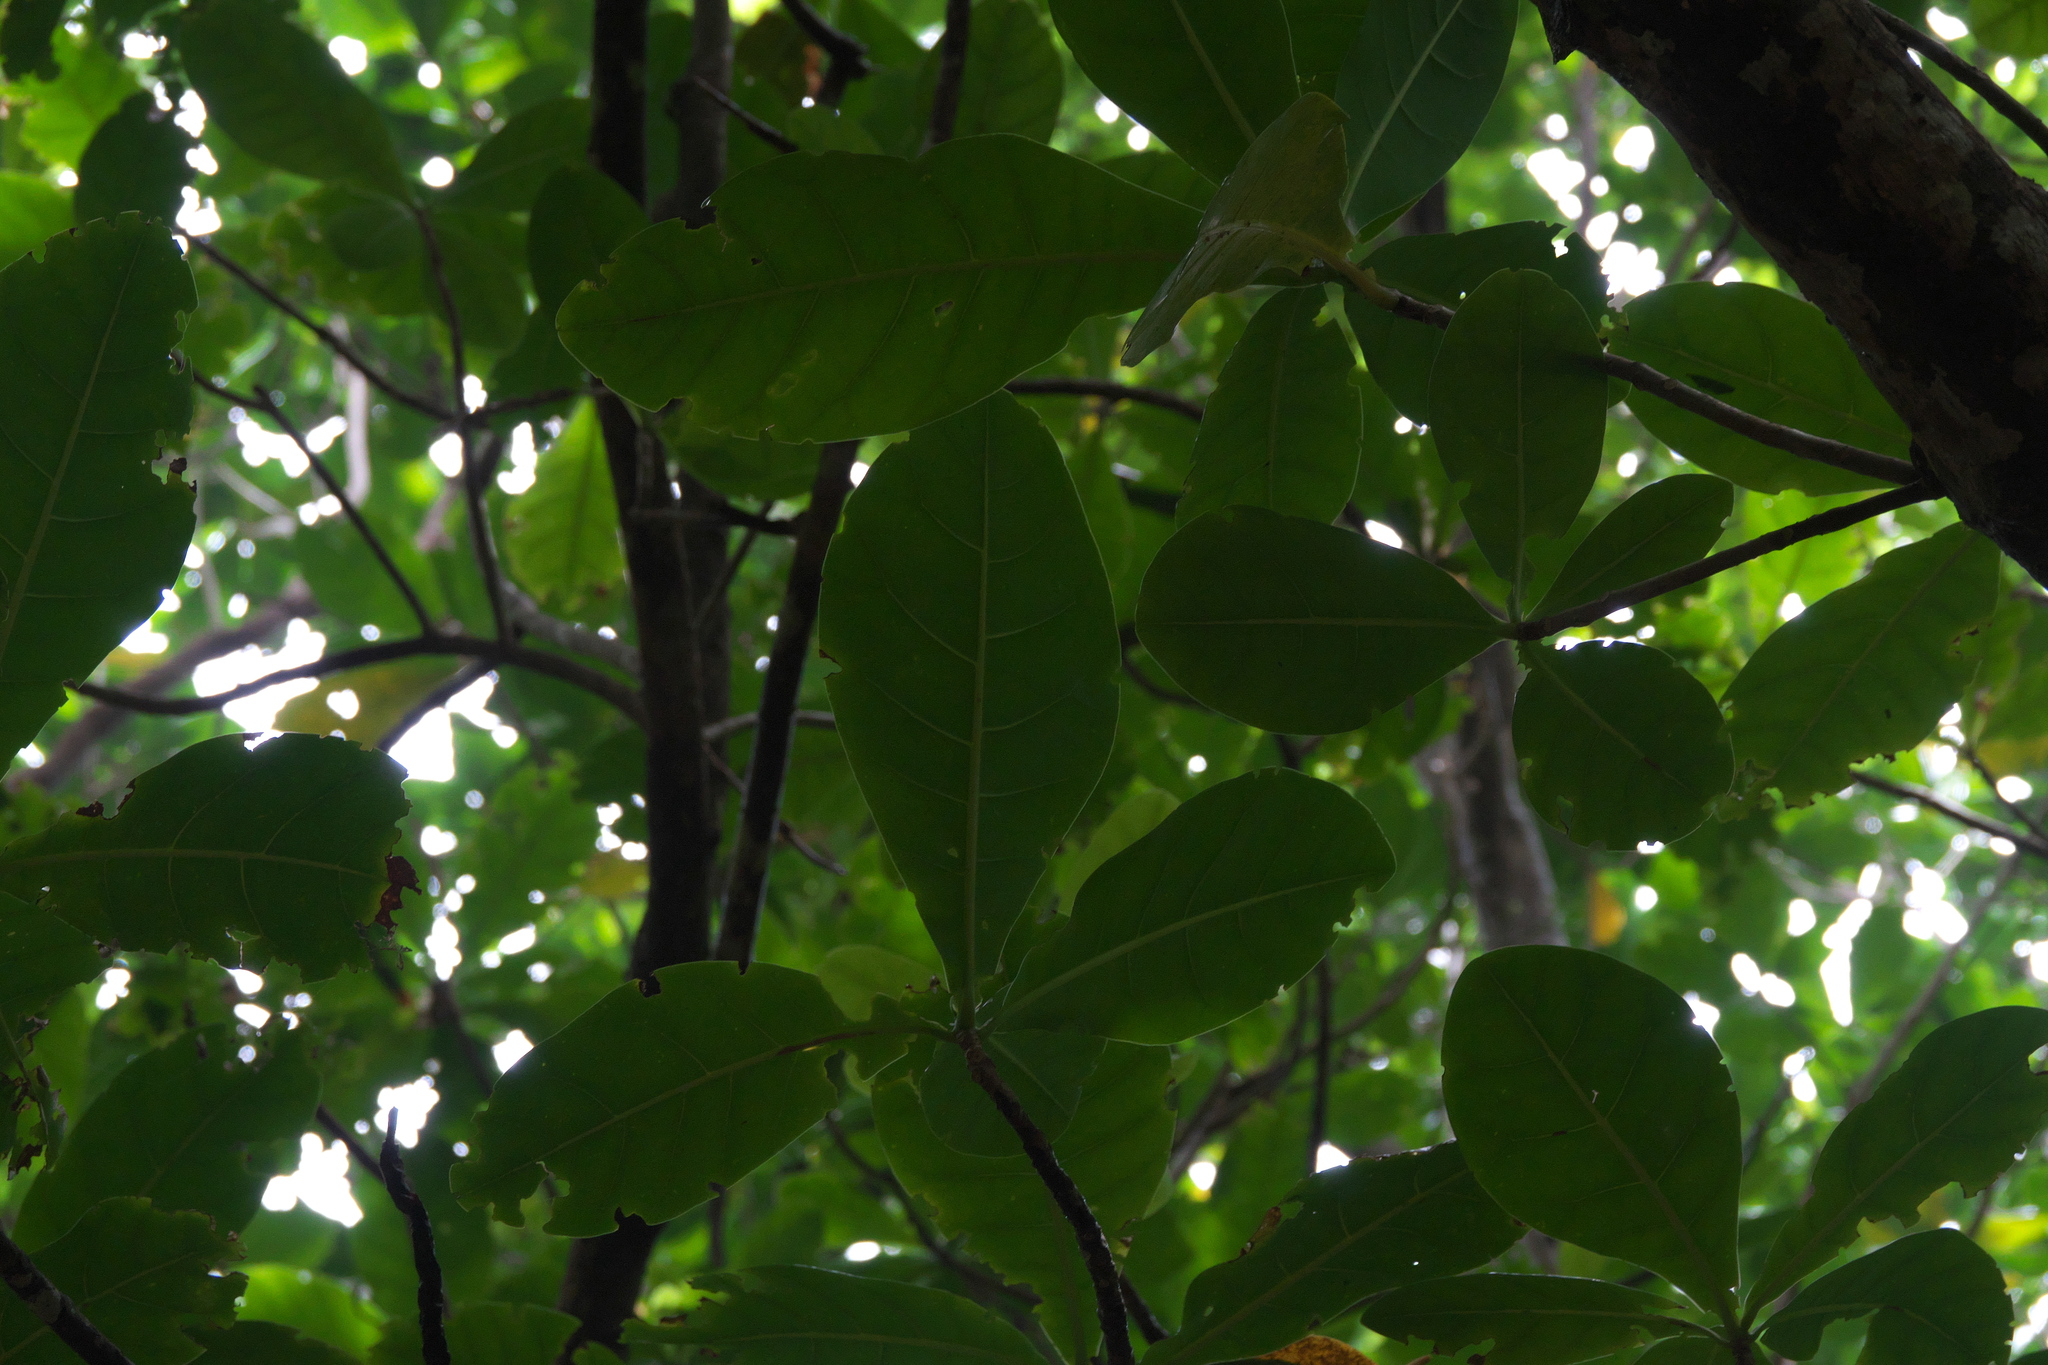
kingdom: Plantae
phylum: Tracheophyta
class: Magnoliopsida
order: Ericales
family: Lecythidaceae
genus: Barringtonia
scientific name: Barringtonia asiatica
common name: Mango-pine
